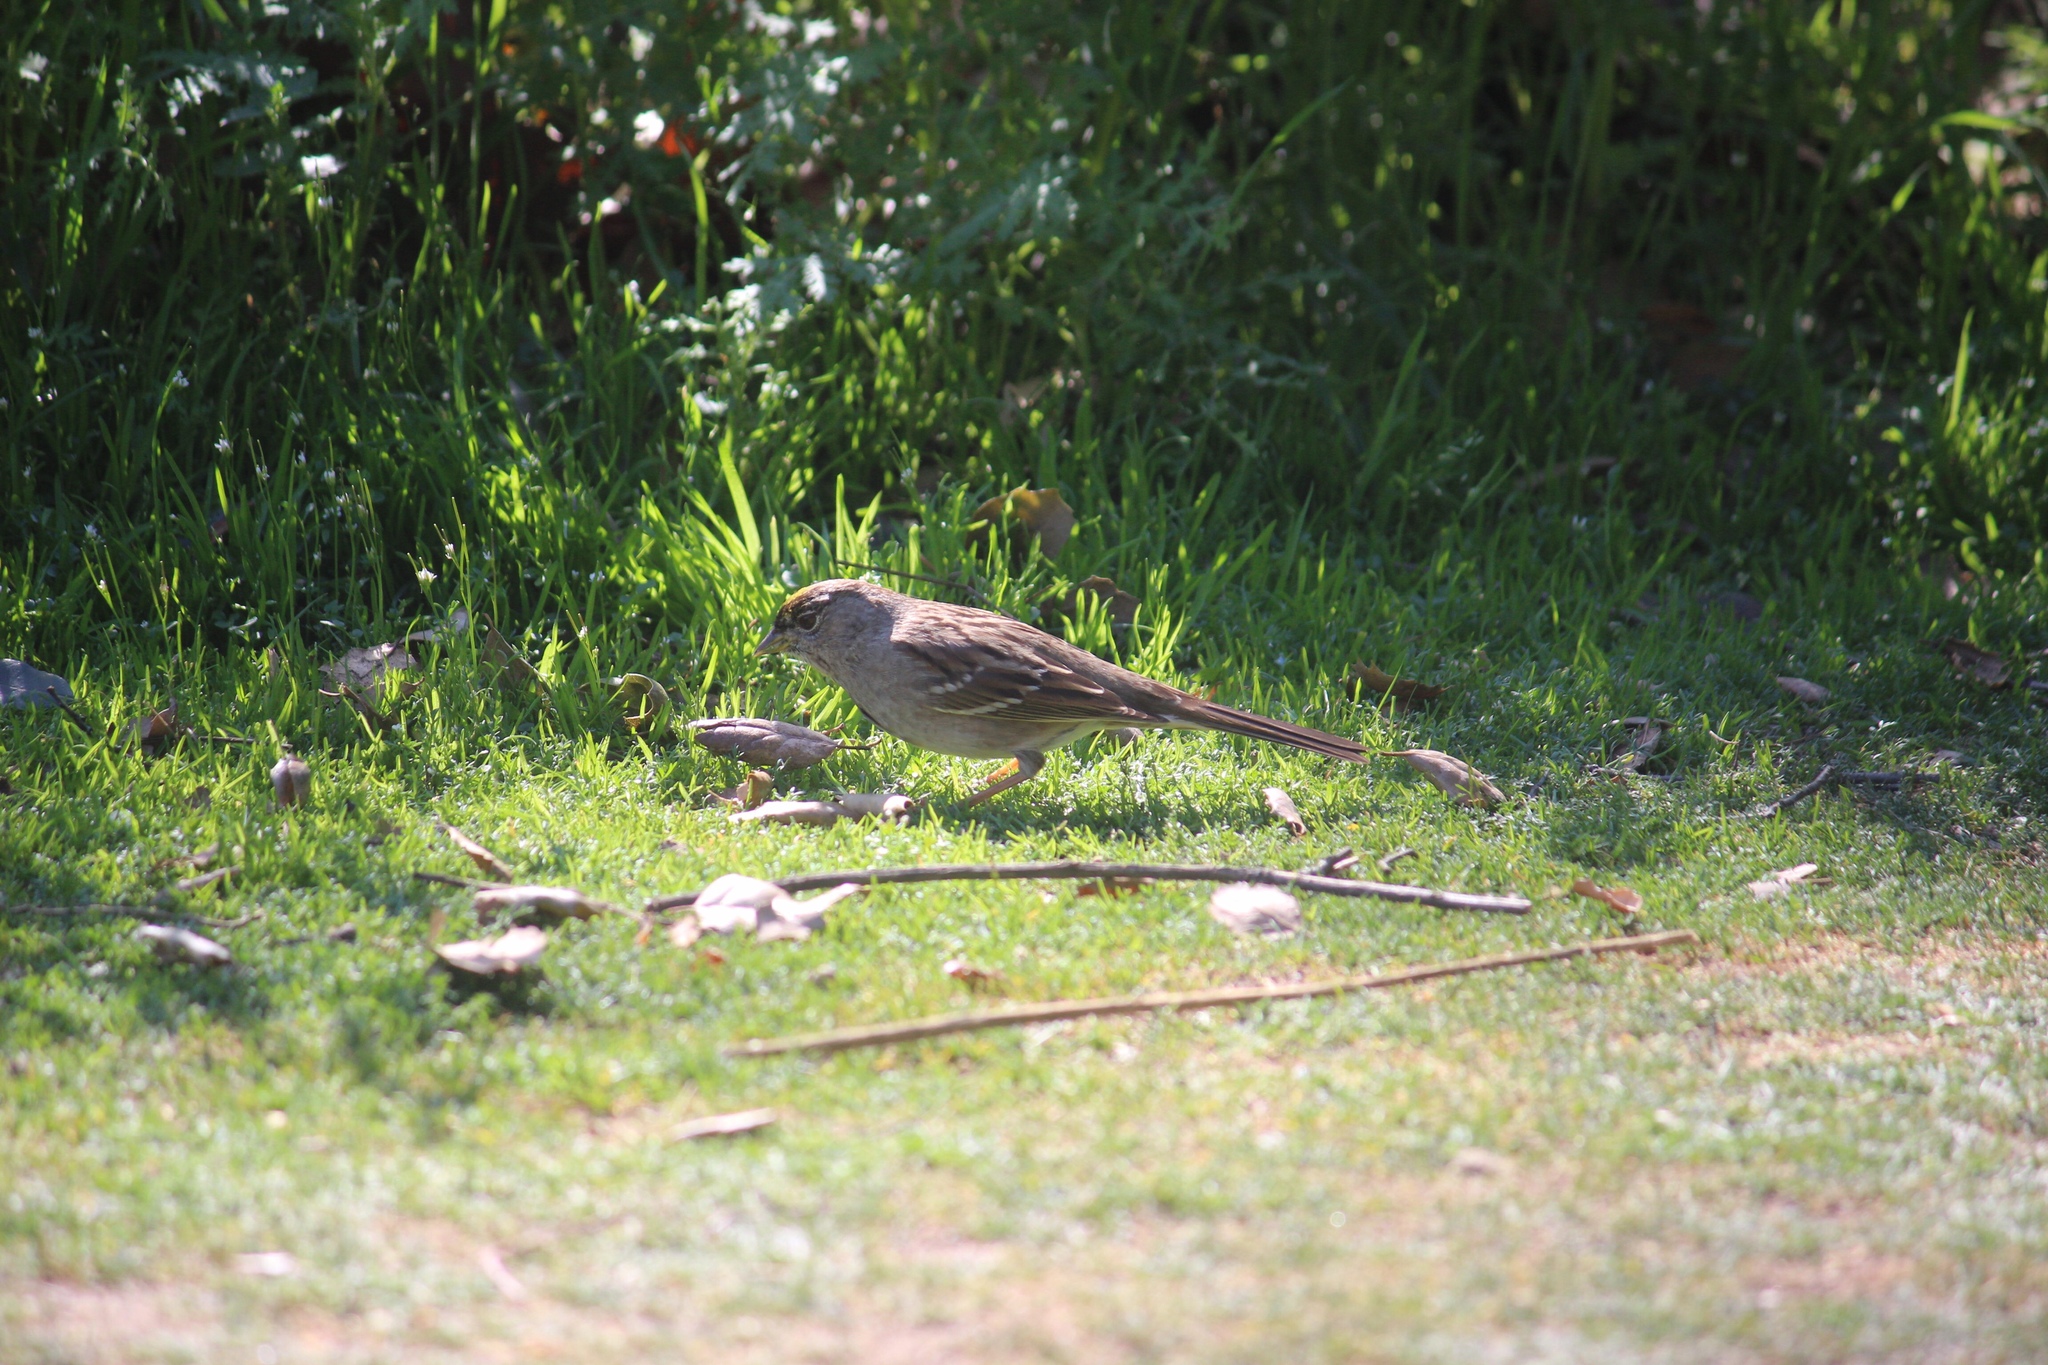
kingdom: Animalia
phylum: Chordata
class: Aves
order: Passeriformes
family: Passerellidae
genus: Zonotrichia
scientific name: Zonotrichia atricapilla
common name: Golden-crowned sparrow
